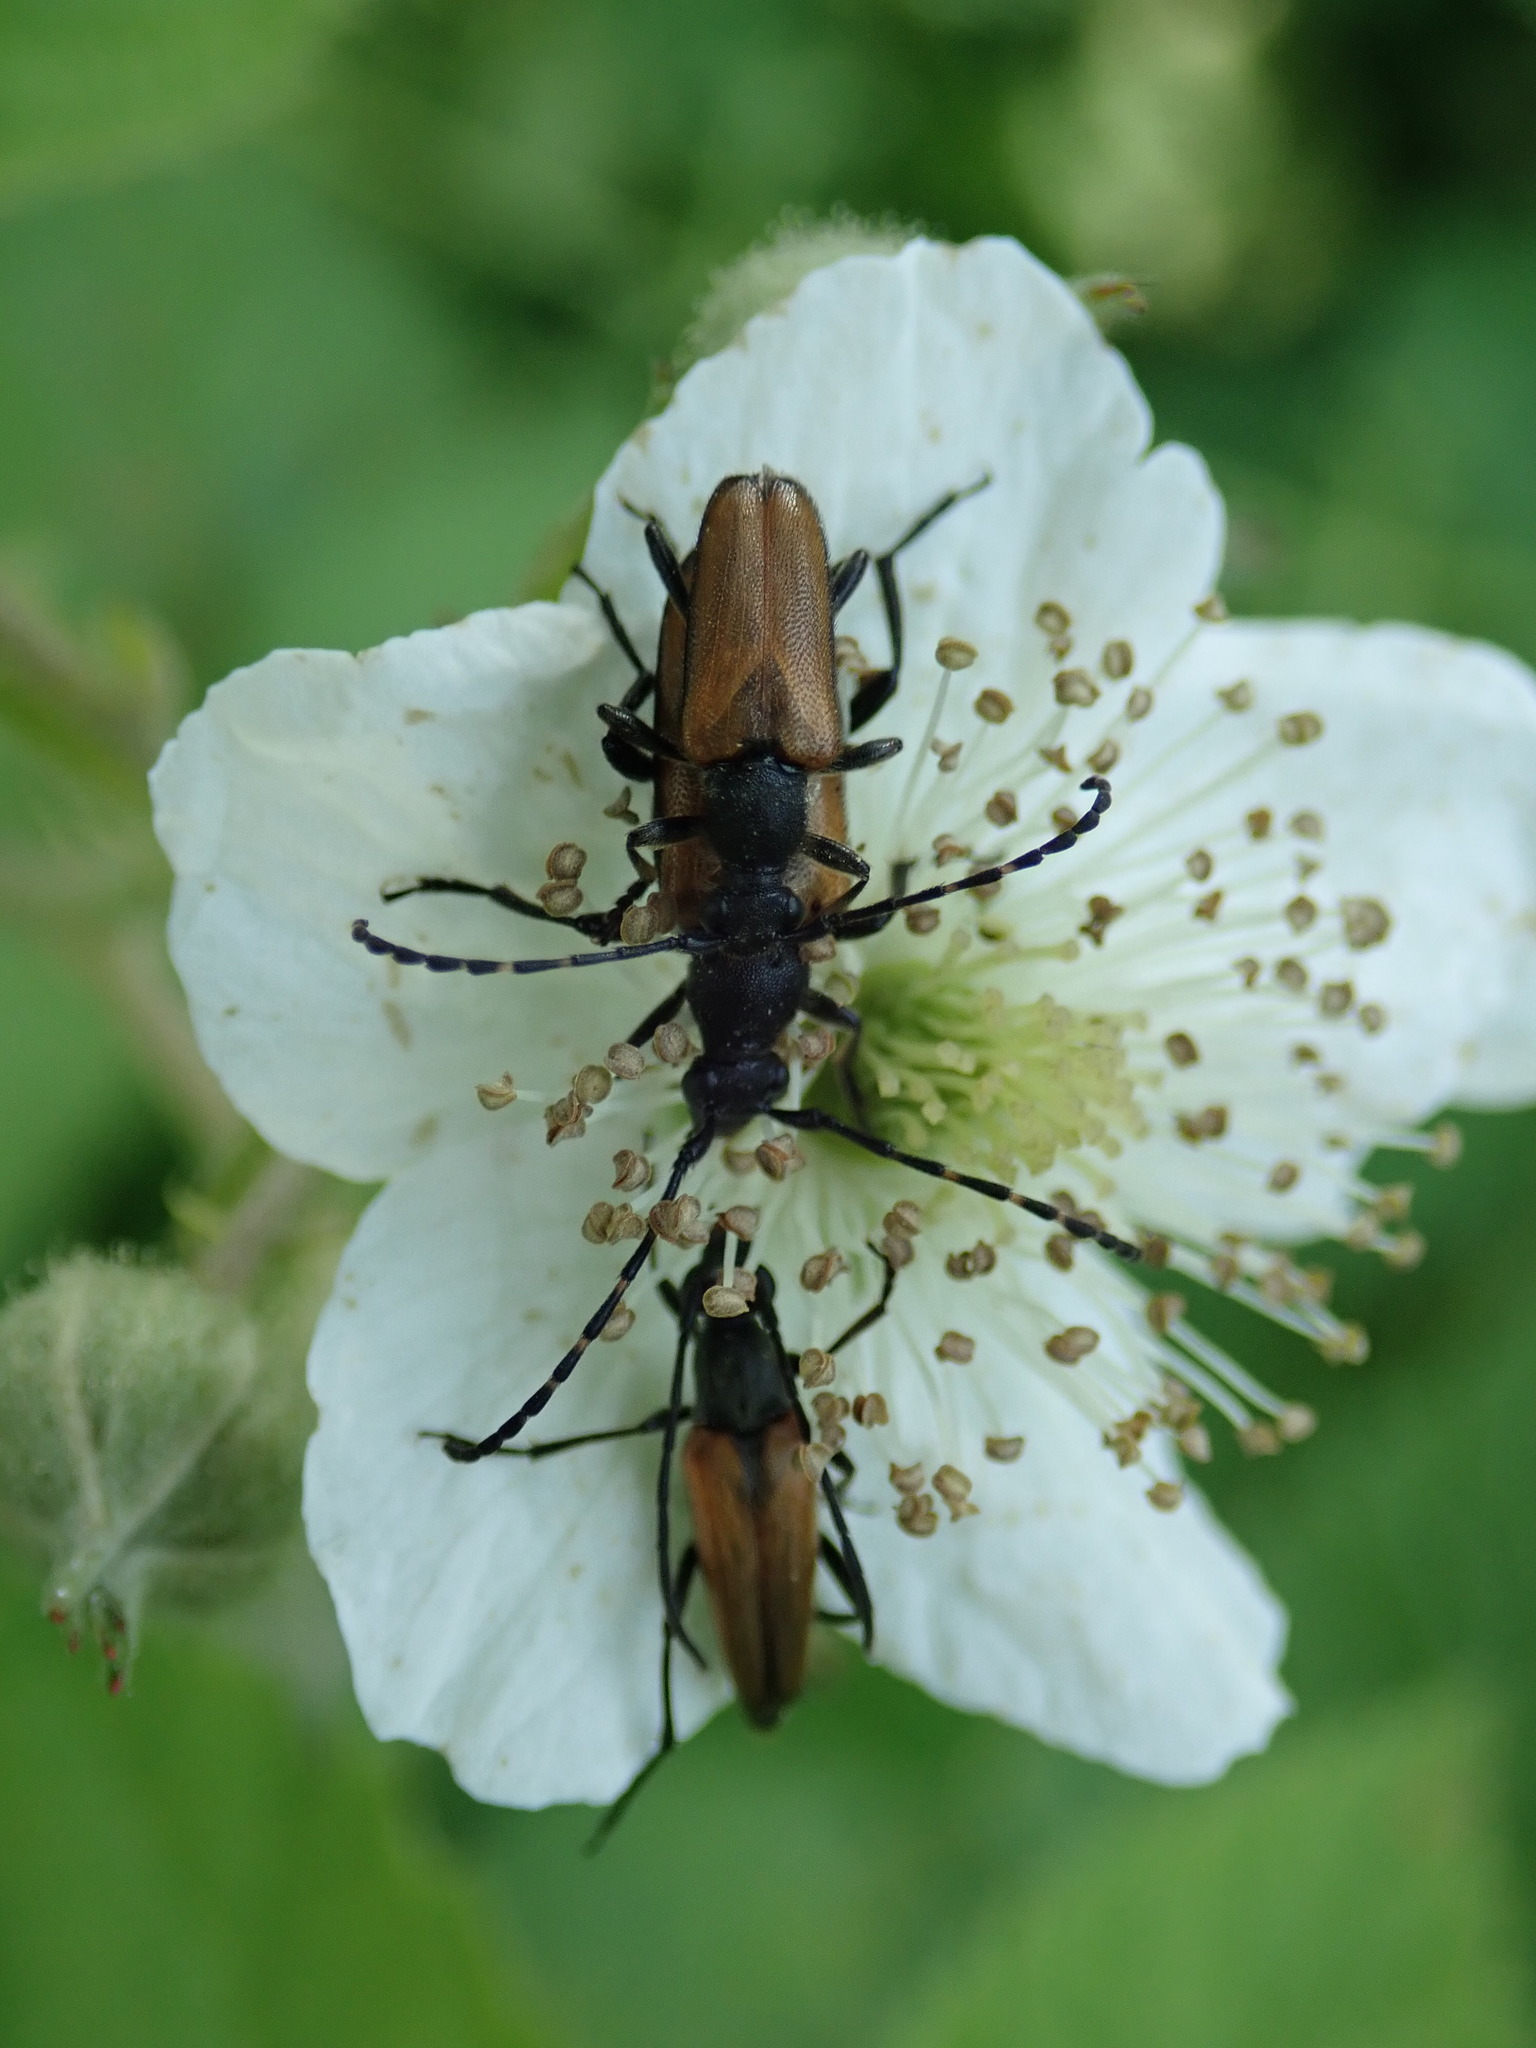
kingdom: Animalia
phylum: Arthropoda
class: Insecta
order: Coleoptera
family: Cerambycidae
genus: Paracorymbia
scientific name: Paracorymbia maculicornis
